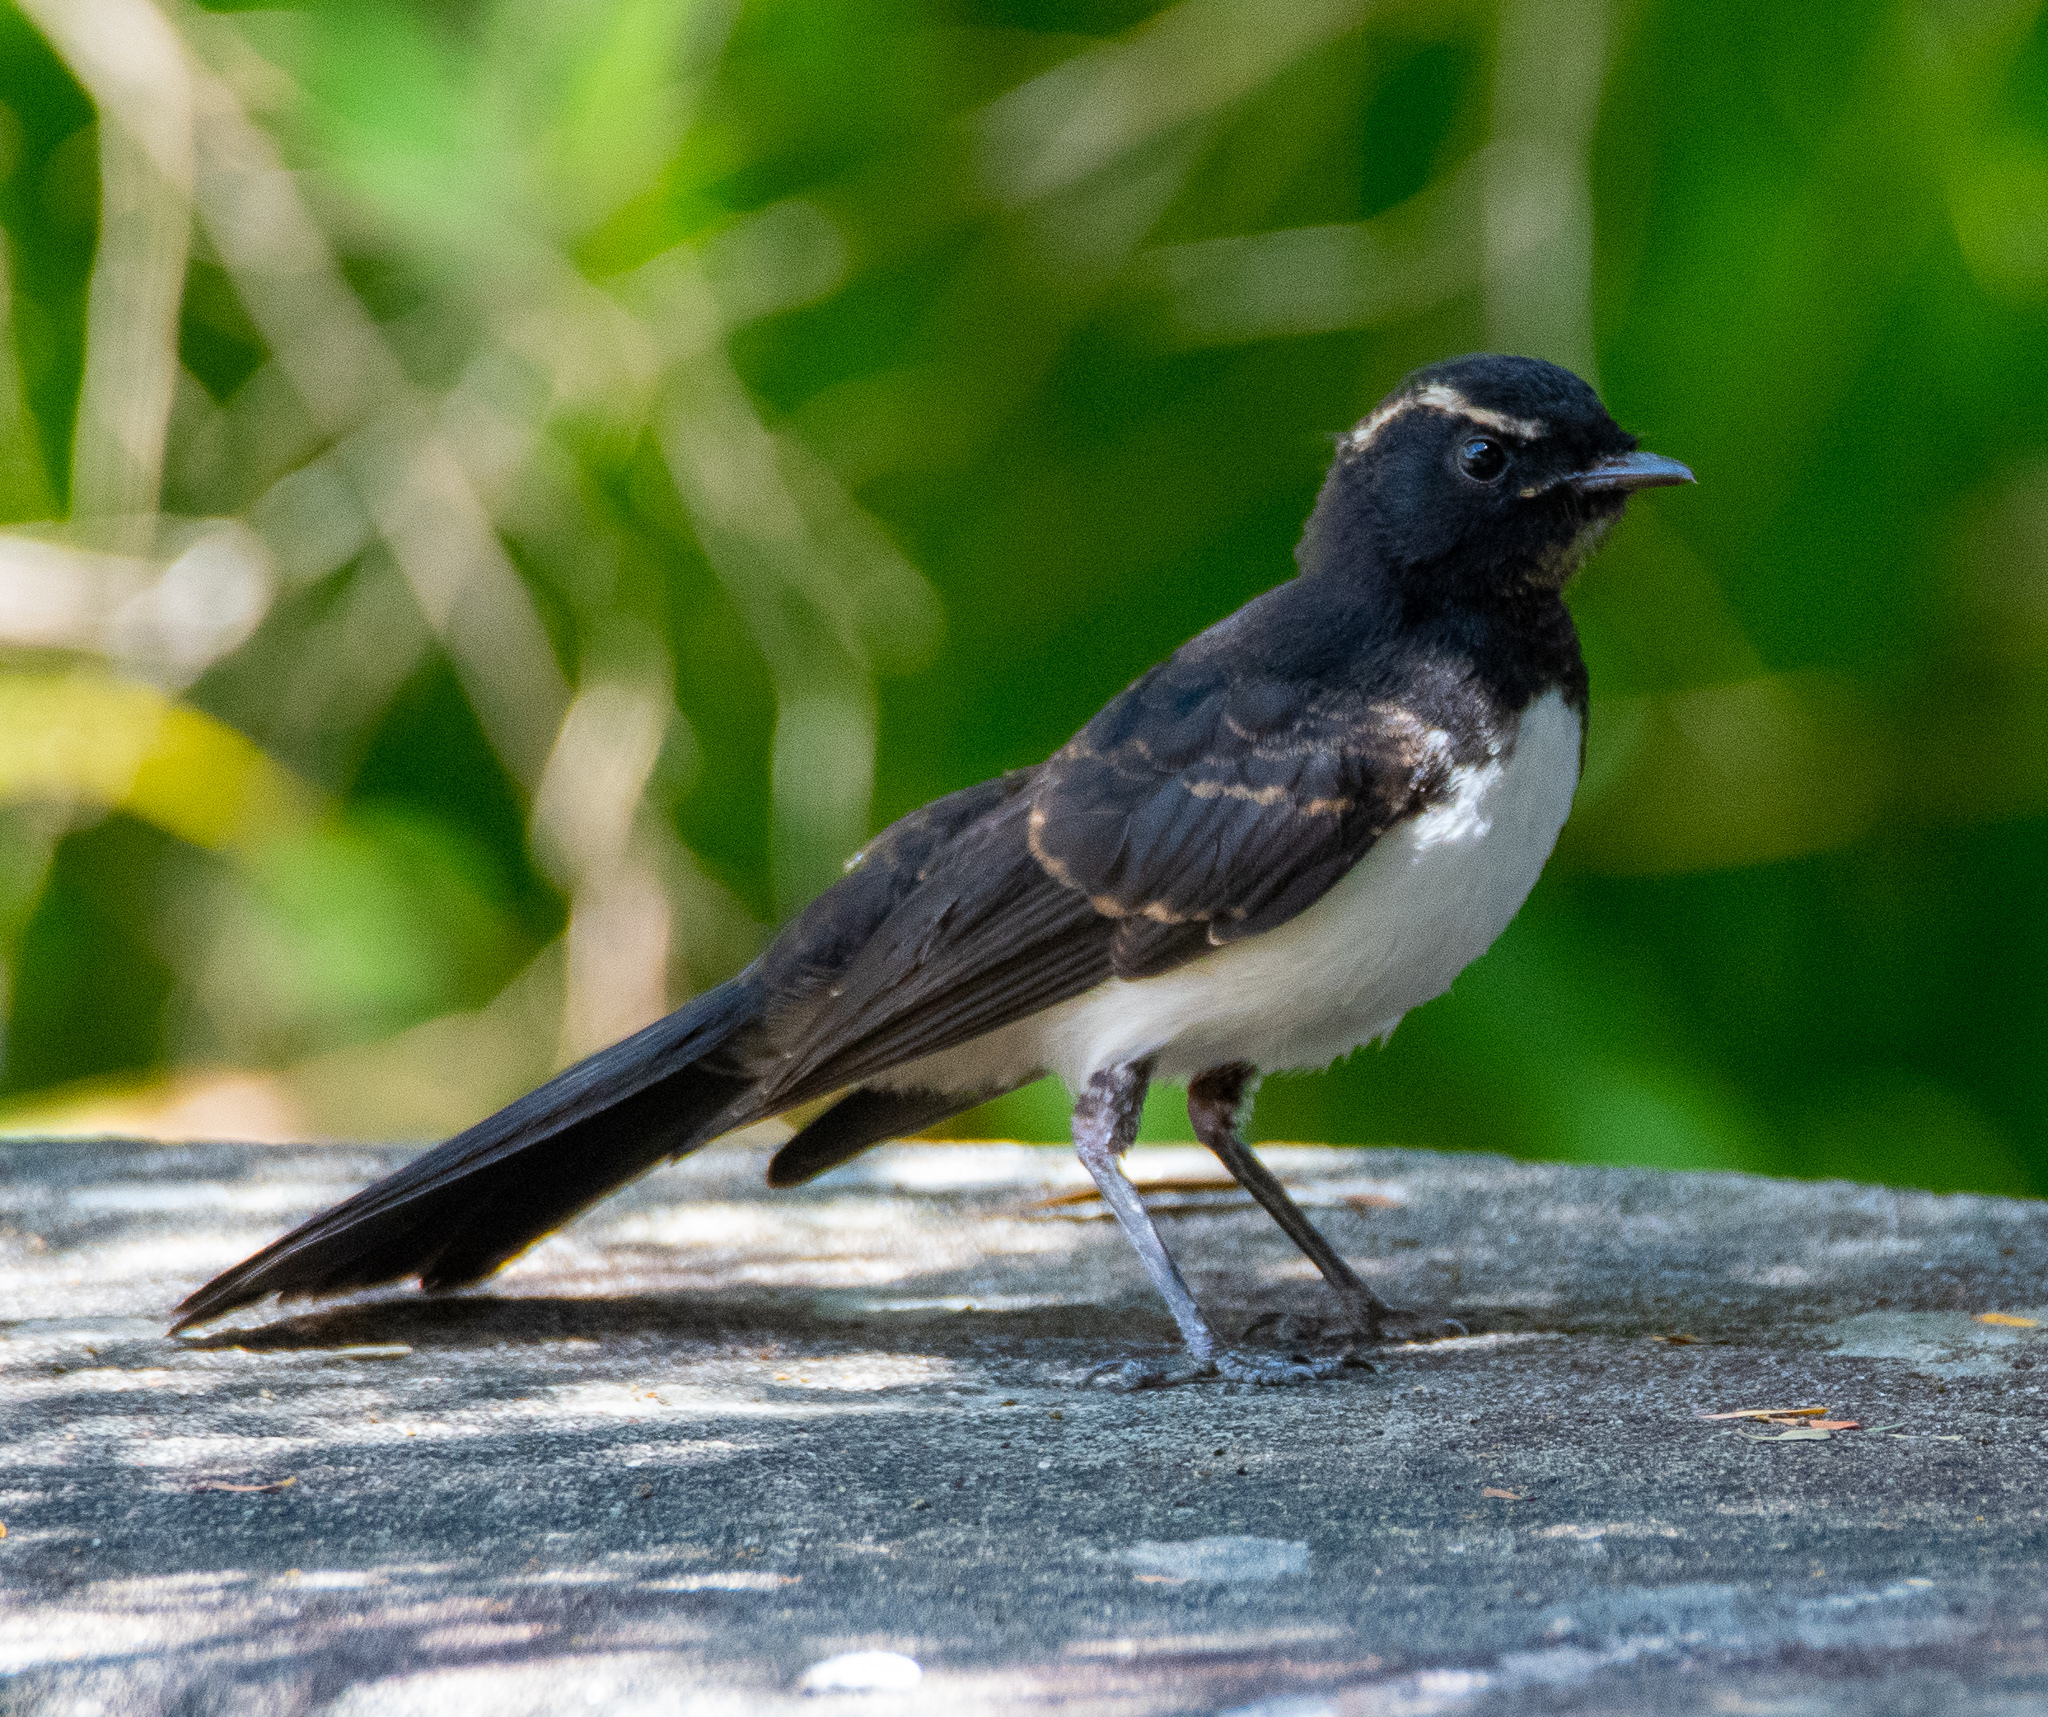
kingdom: Animalia
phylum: Chordata
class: Aves
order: Passeriformes
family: Rhipiduridae
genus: Rhipidura
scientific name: Rhipidura leucophrys
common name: Willie wagtail
